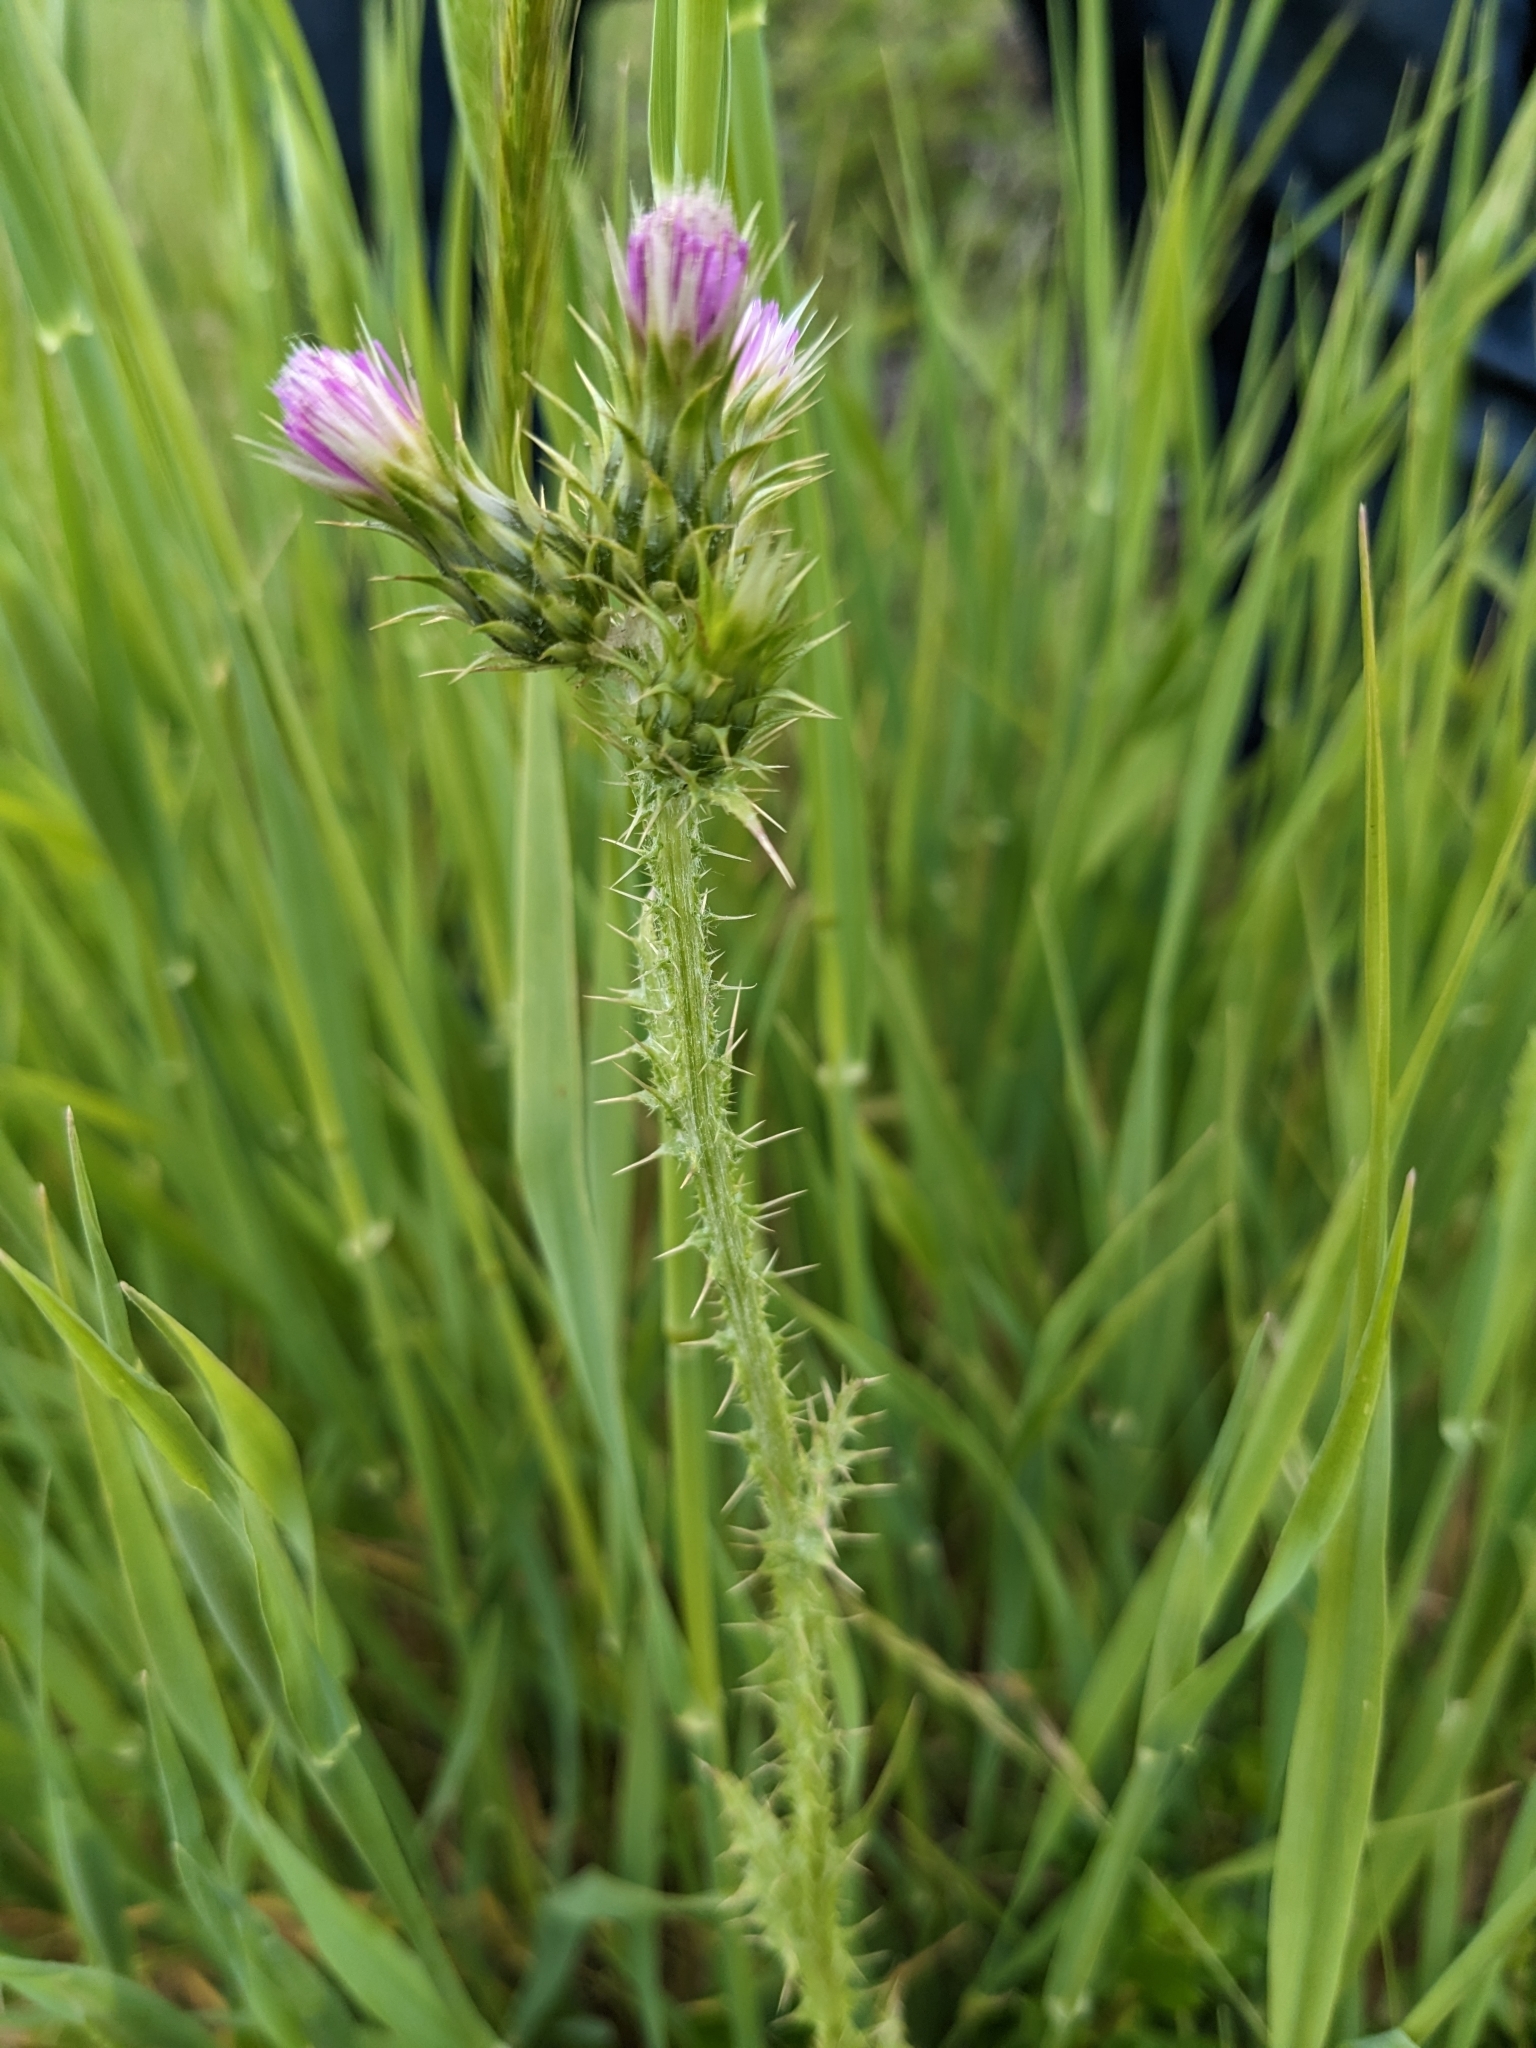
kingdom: Plantae
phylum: Tracheophyta
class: Magnoliopsida
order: Asterales
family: Asteraceae
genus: Carduus
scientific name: Carduus pycnocephalus
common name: Plymouth thistle
